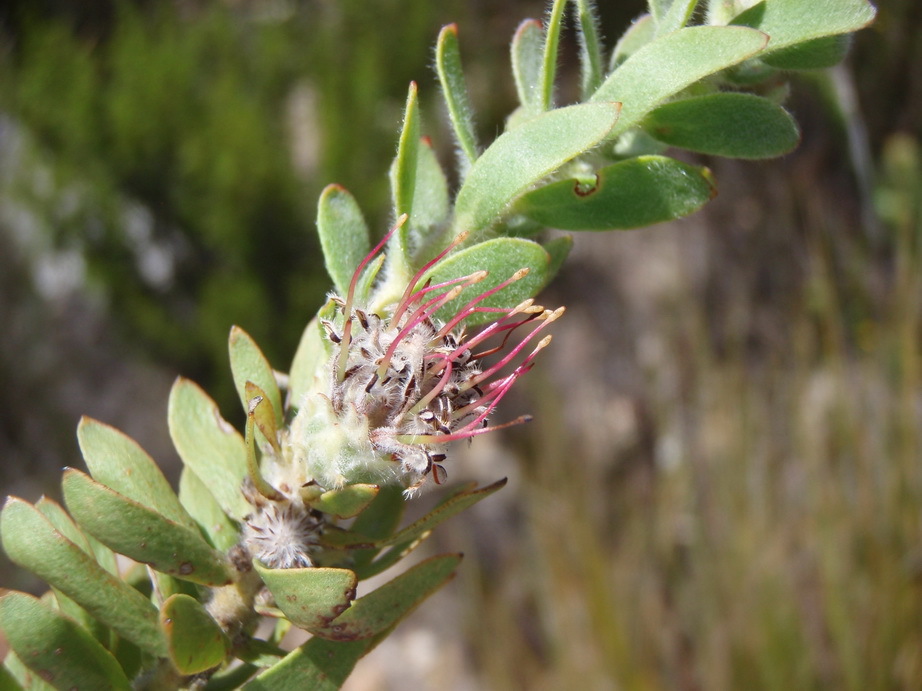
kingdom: Plantae
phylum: Tracheophyta
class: Magnoliopsida
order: Proteales
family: Proteaceae
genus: Leucospermum
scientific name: Leucospermum royenifolium
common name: Eastern pincushion
